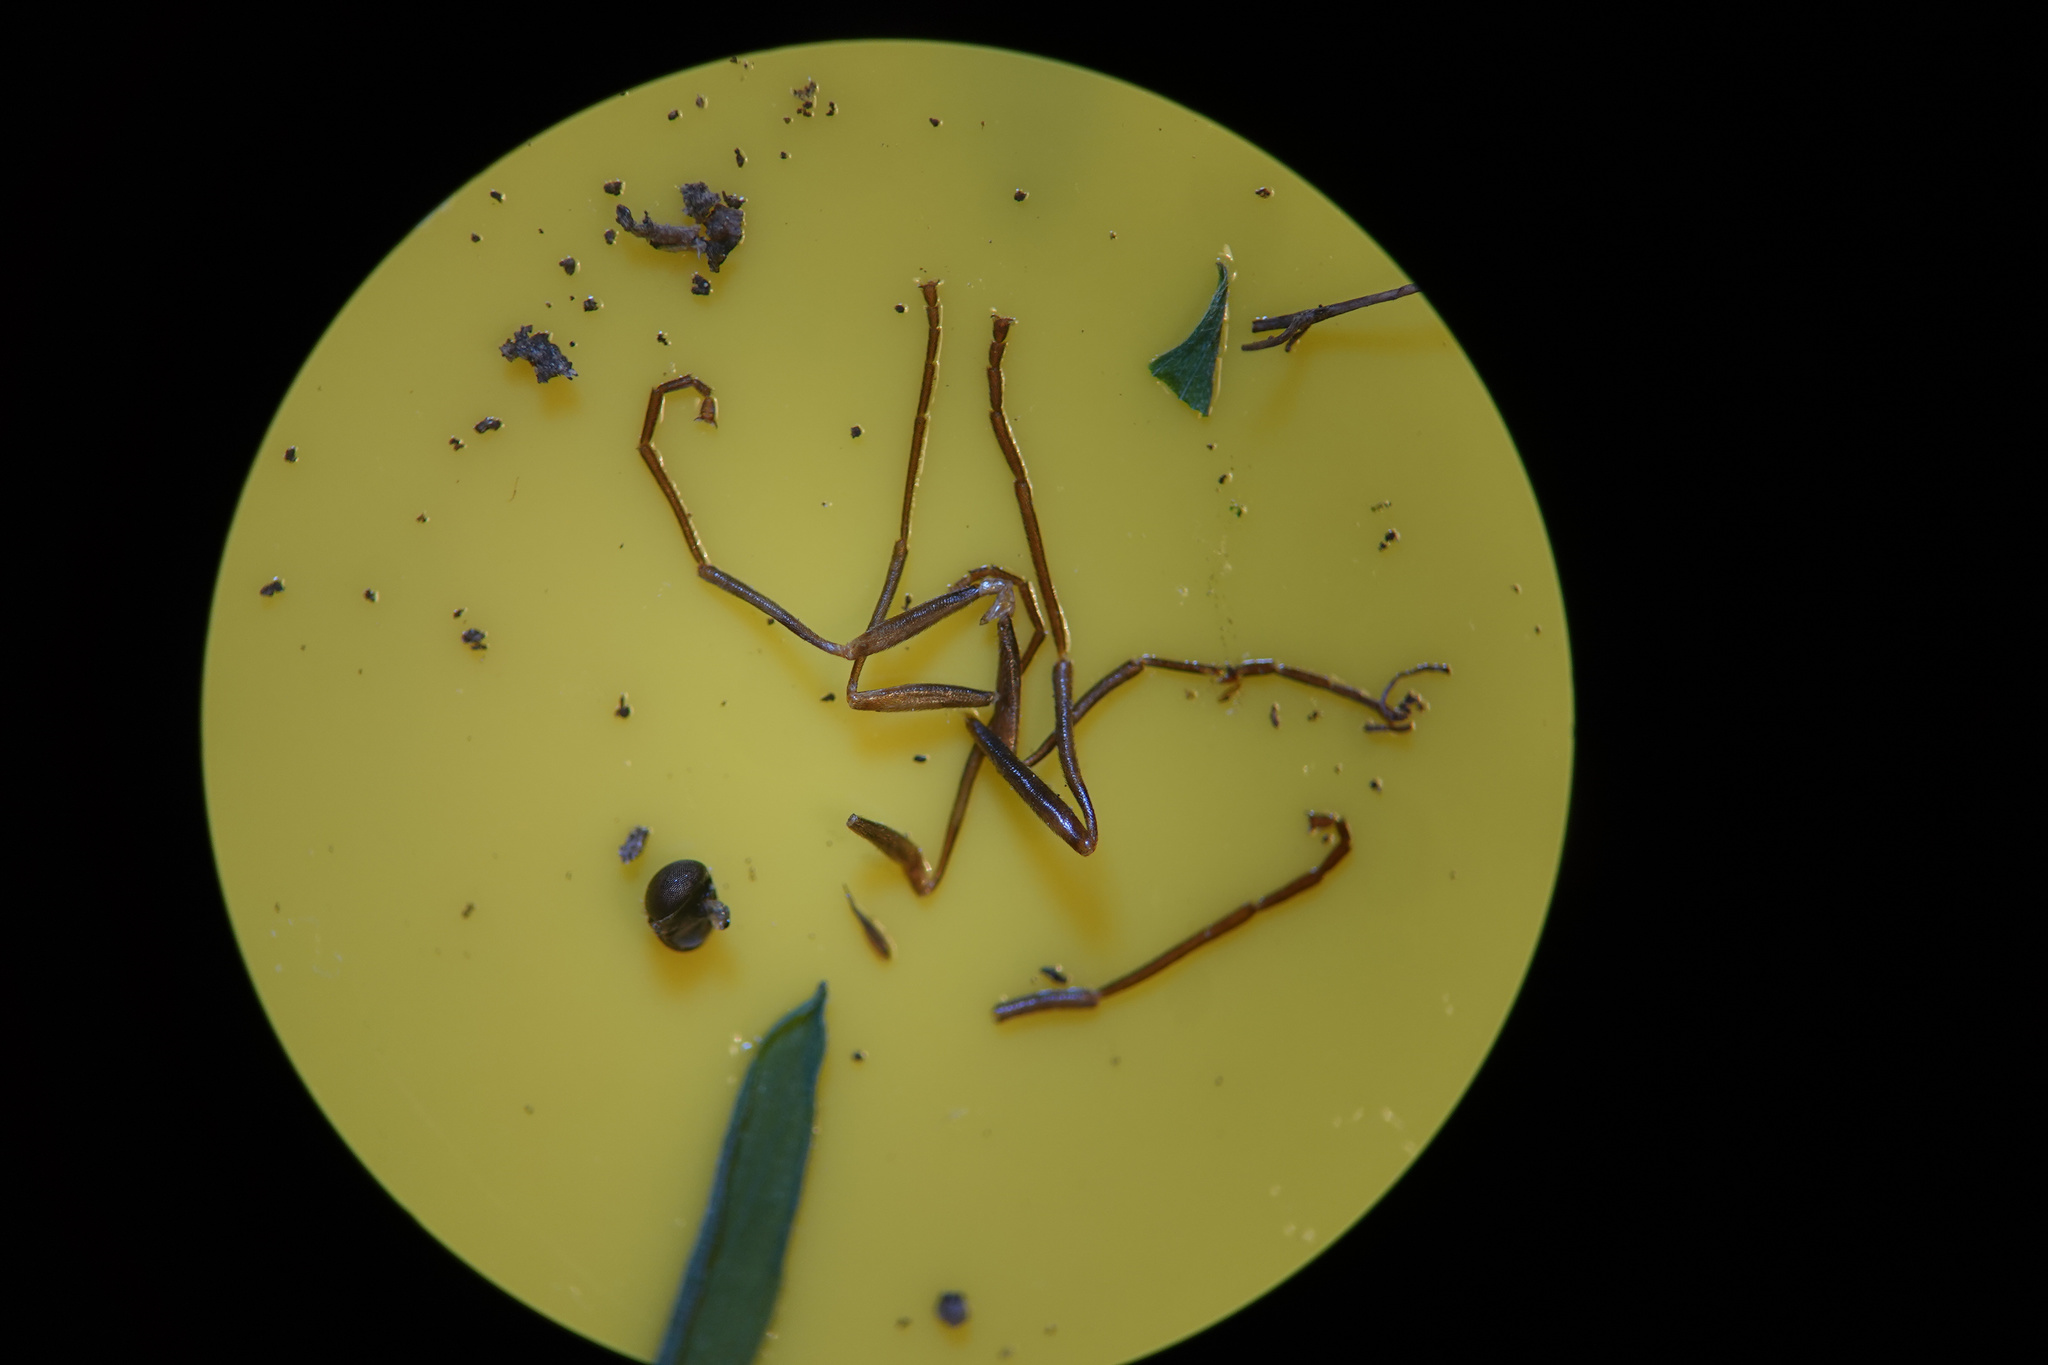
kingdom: Animalia
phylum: Arthropoda
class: Insecta
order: Diptera
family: Stratiomyidae
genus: Boreoides
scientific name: Boreoides tasmaniensis
